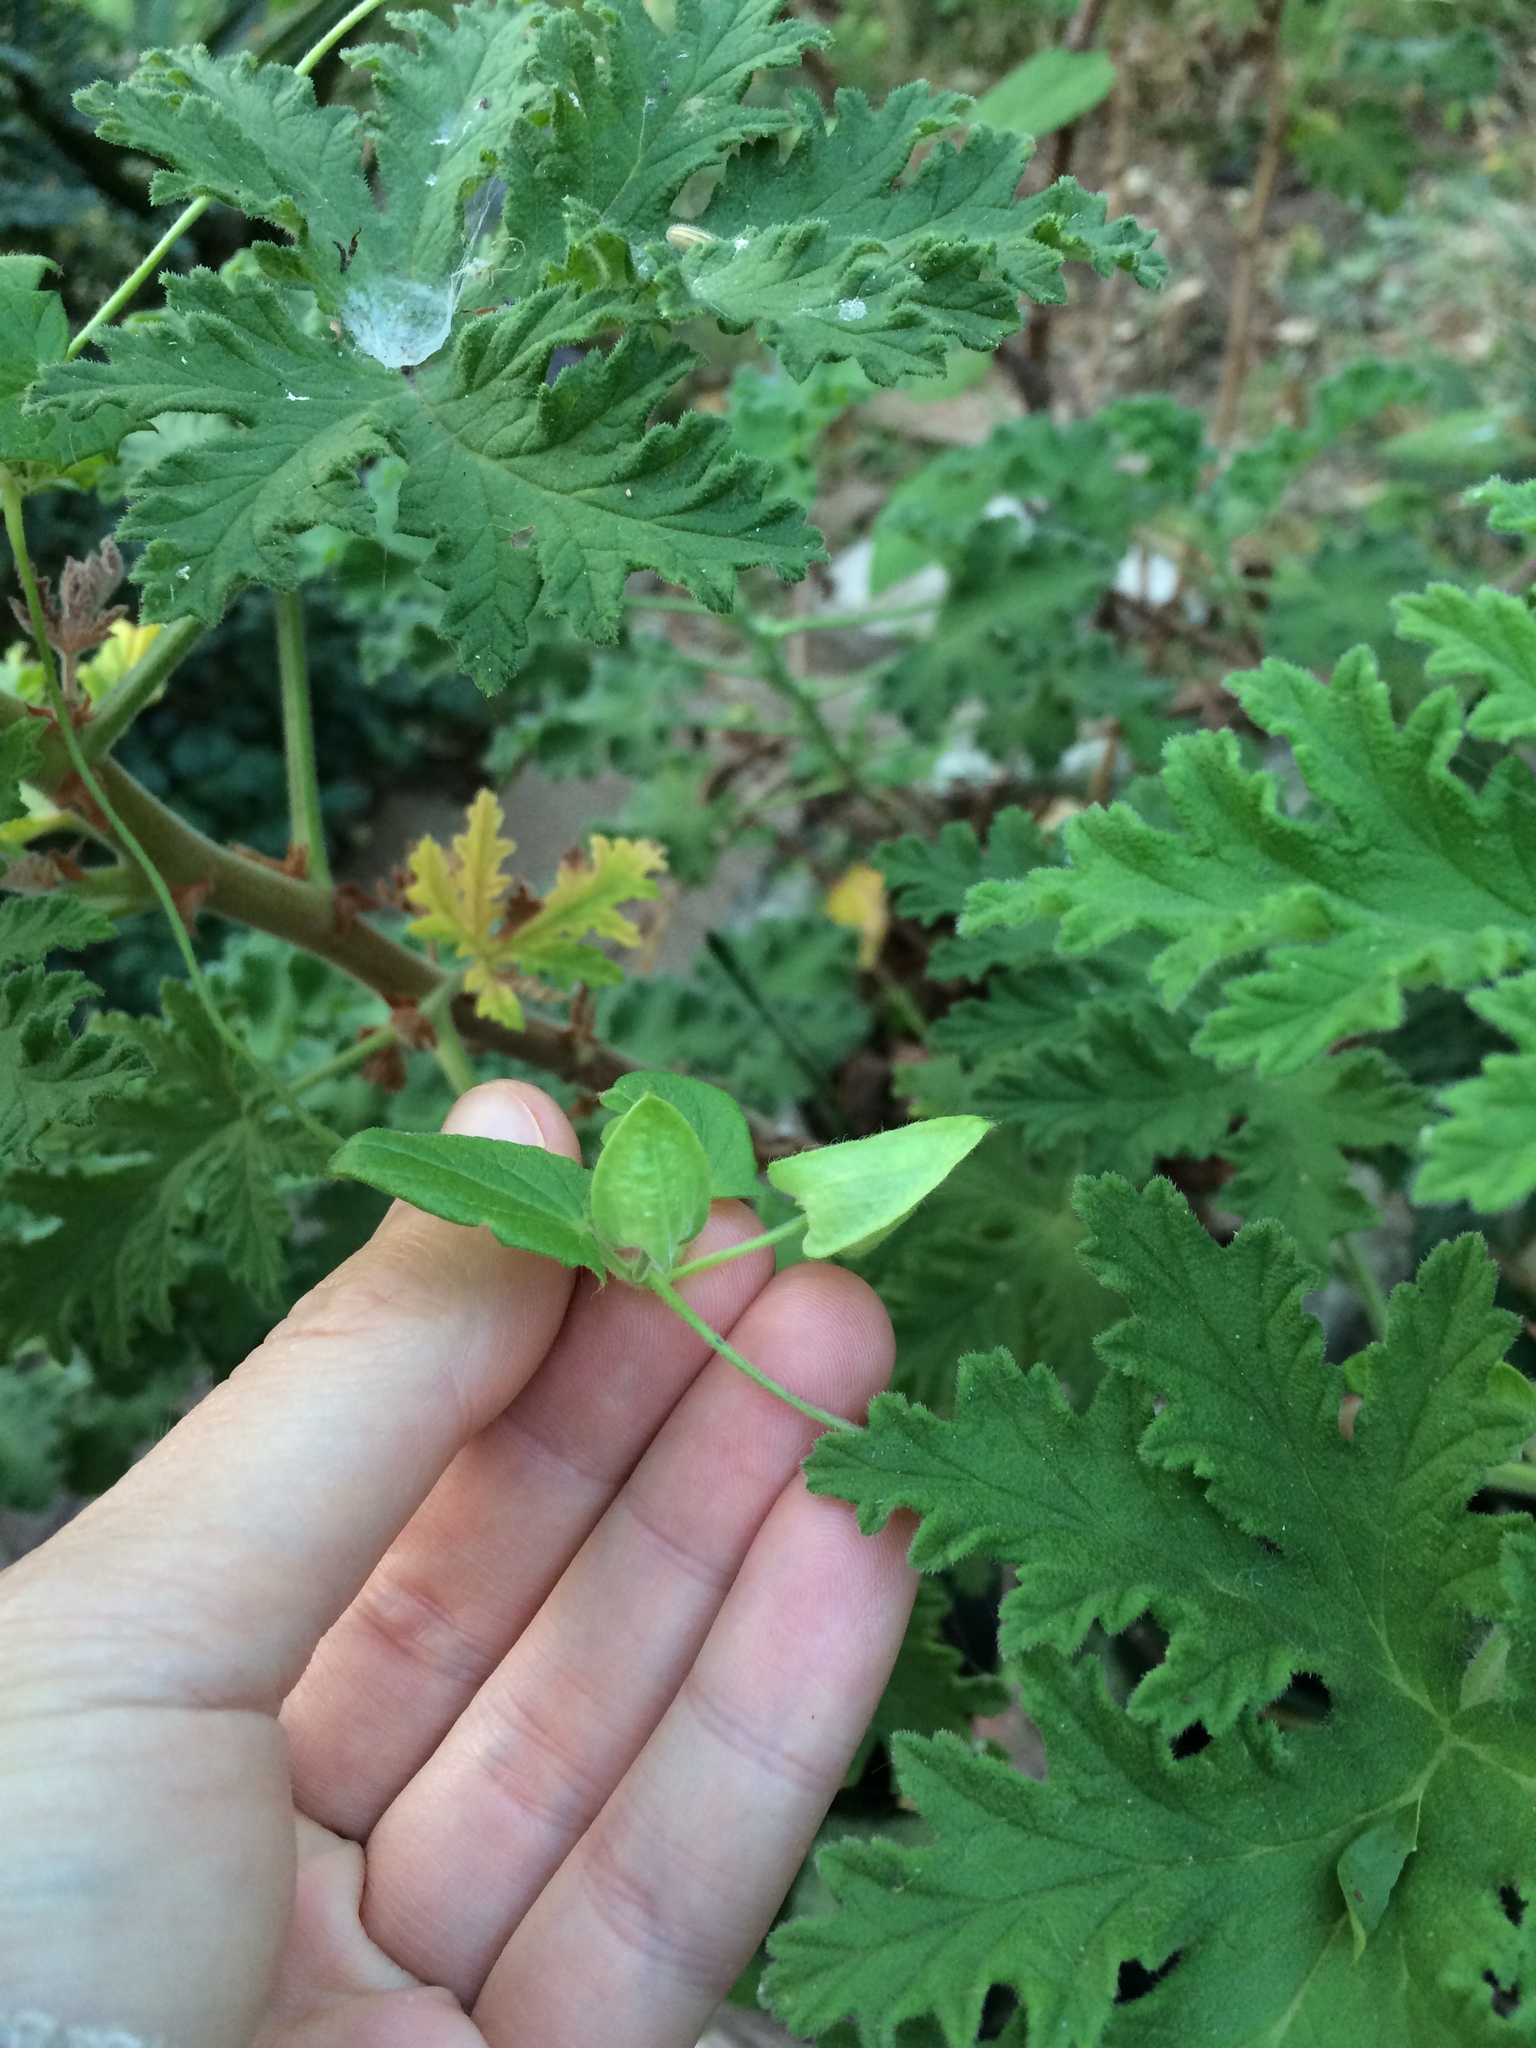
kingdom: Plantae
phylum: Tracheophyta
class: Magnoliopsida
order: Lamiales
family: Acanthaceae
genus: Thunbergia
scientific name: Thunbergia alata
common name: Blackeyed susan vine
